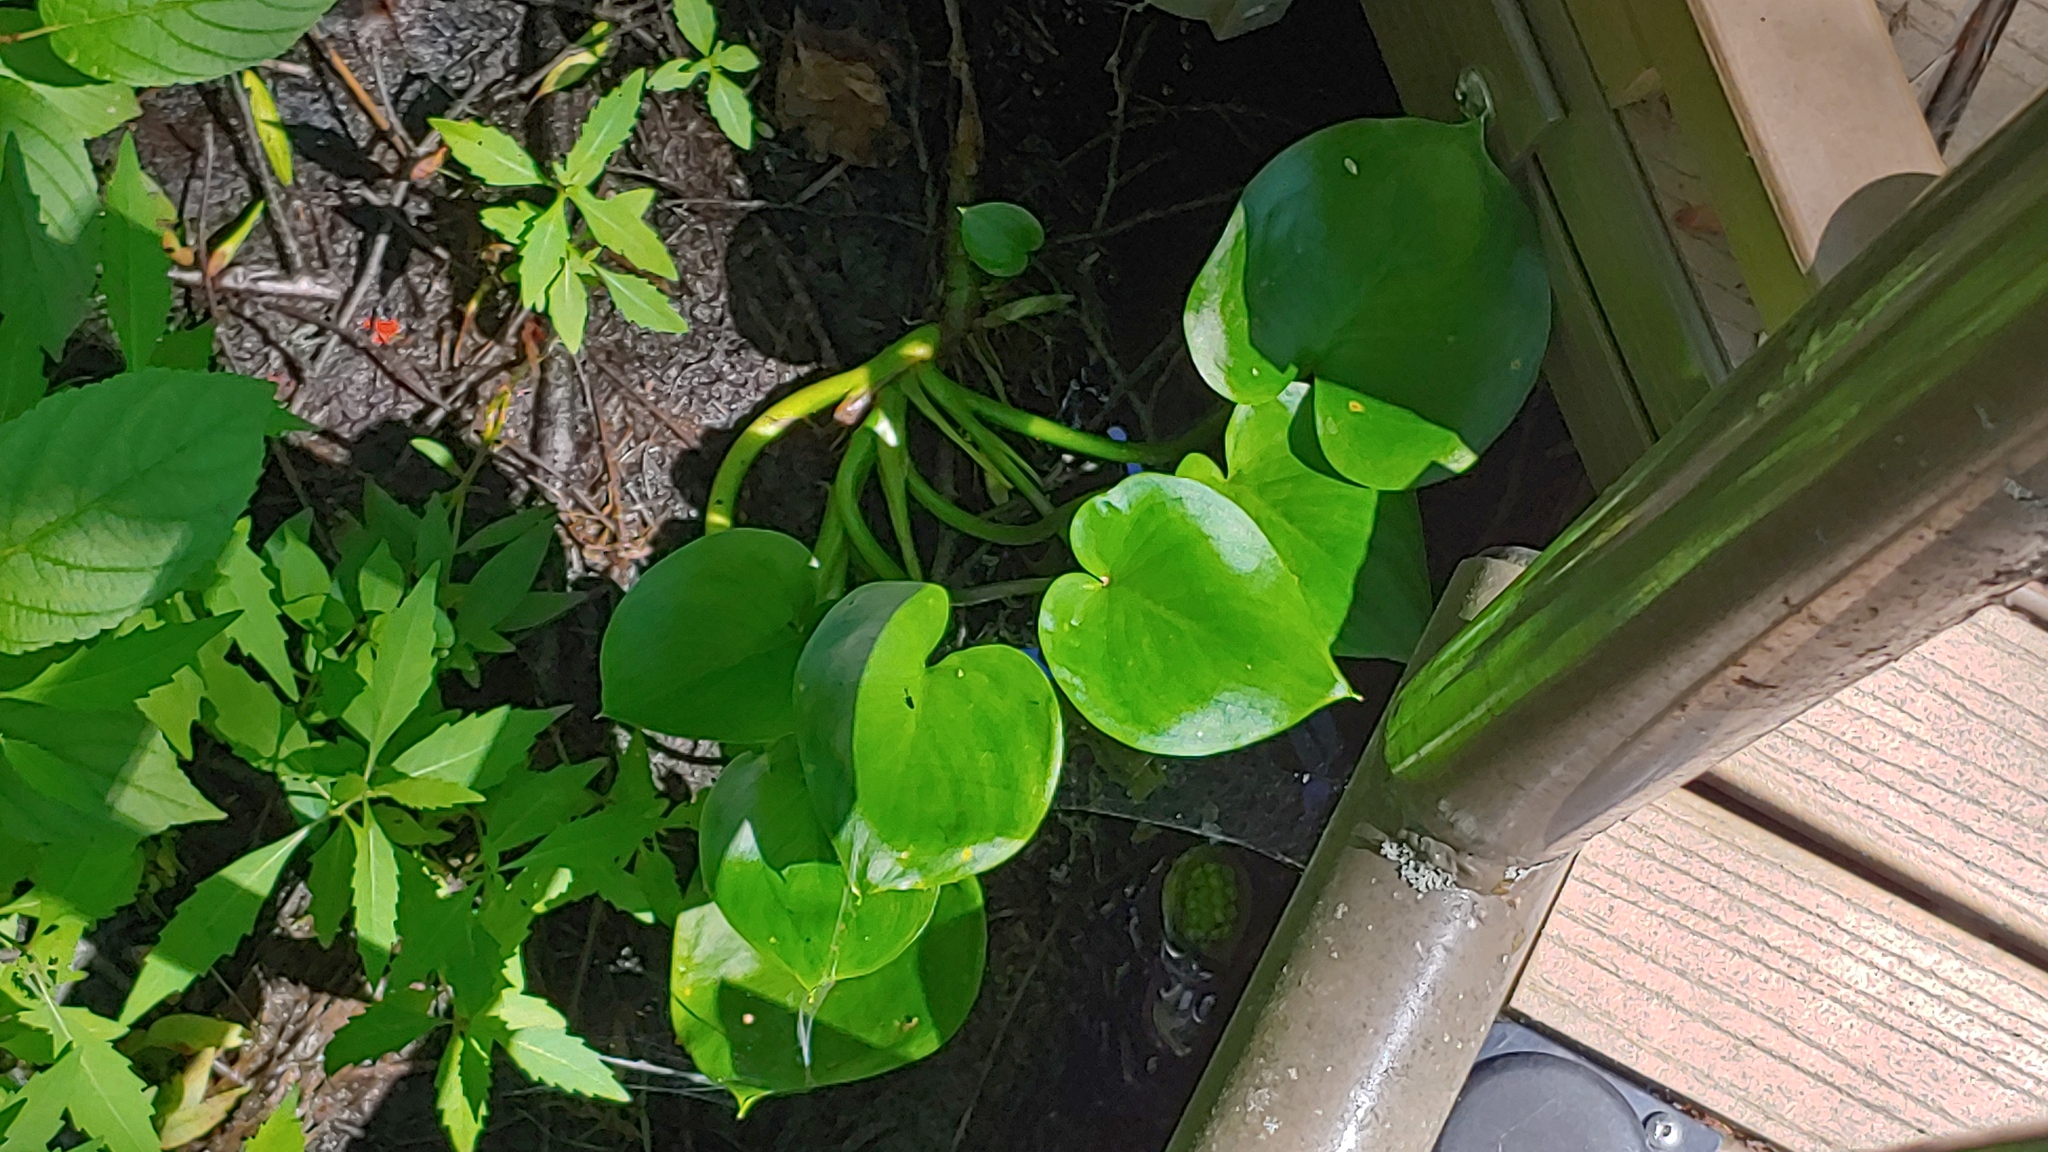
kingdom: Plantae
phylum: Tracheophyta
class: Liliopsida
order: Alismatales
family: Araceae
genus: Calla
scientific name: Calla palustris
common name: Bog arum
